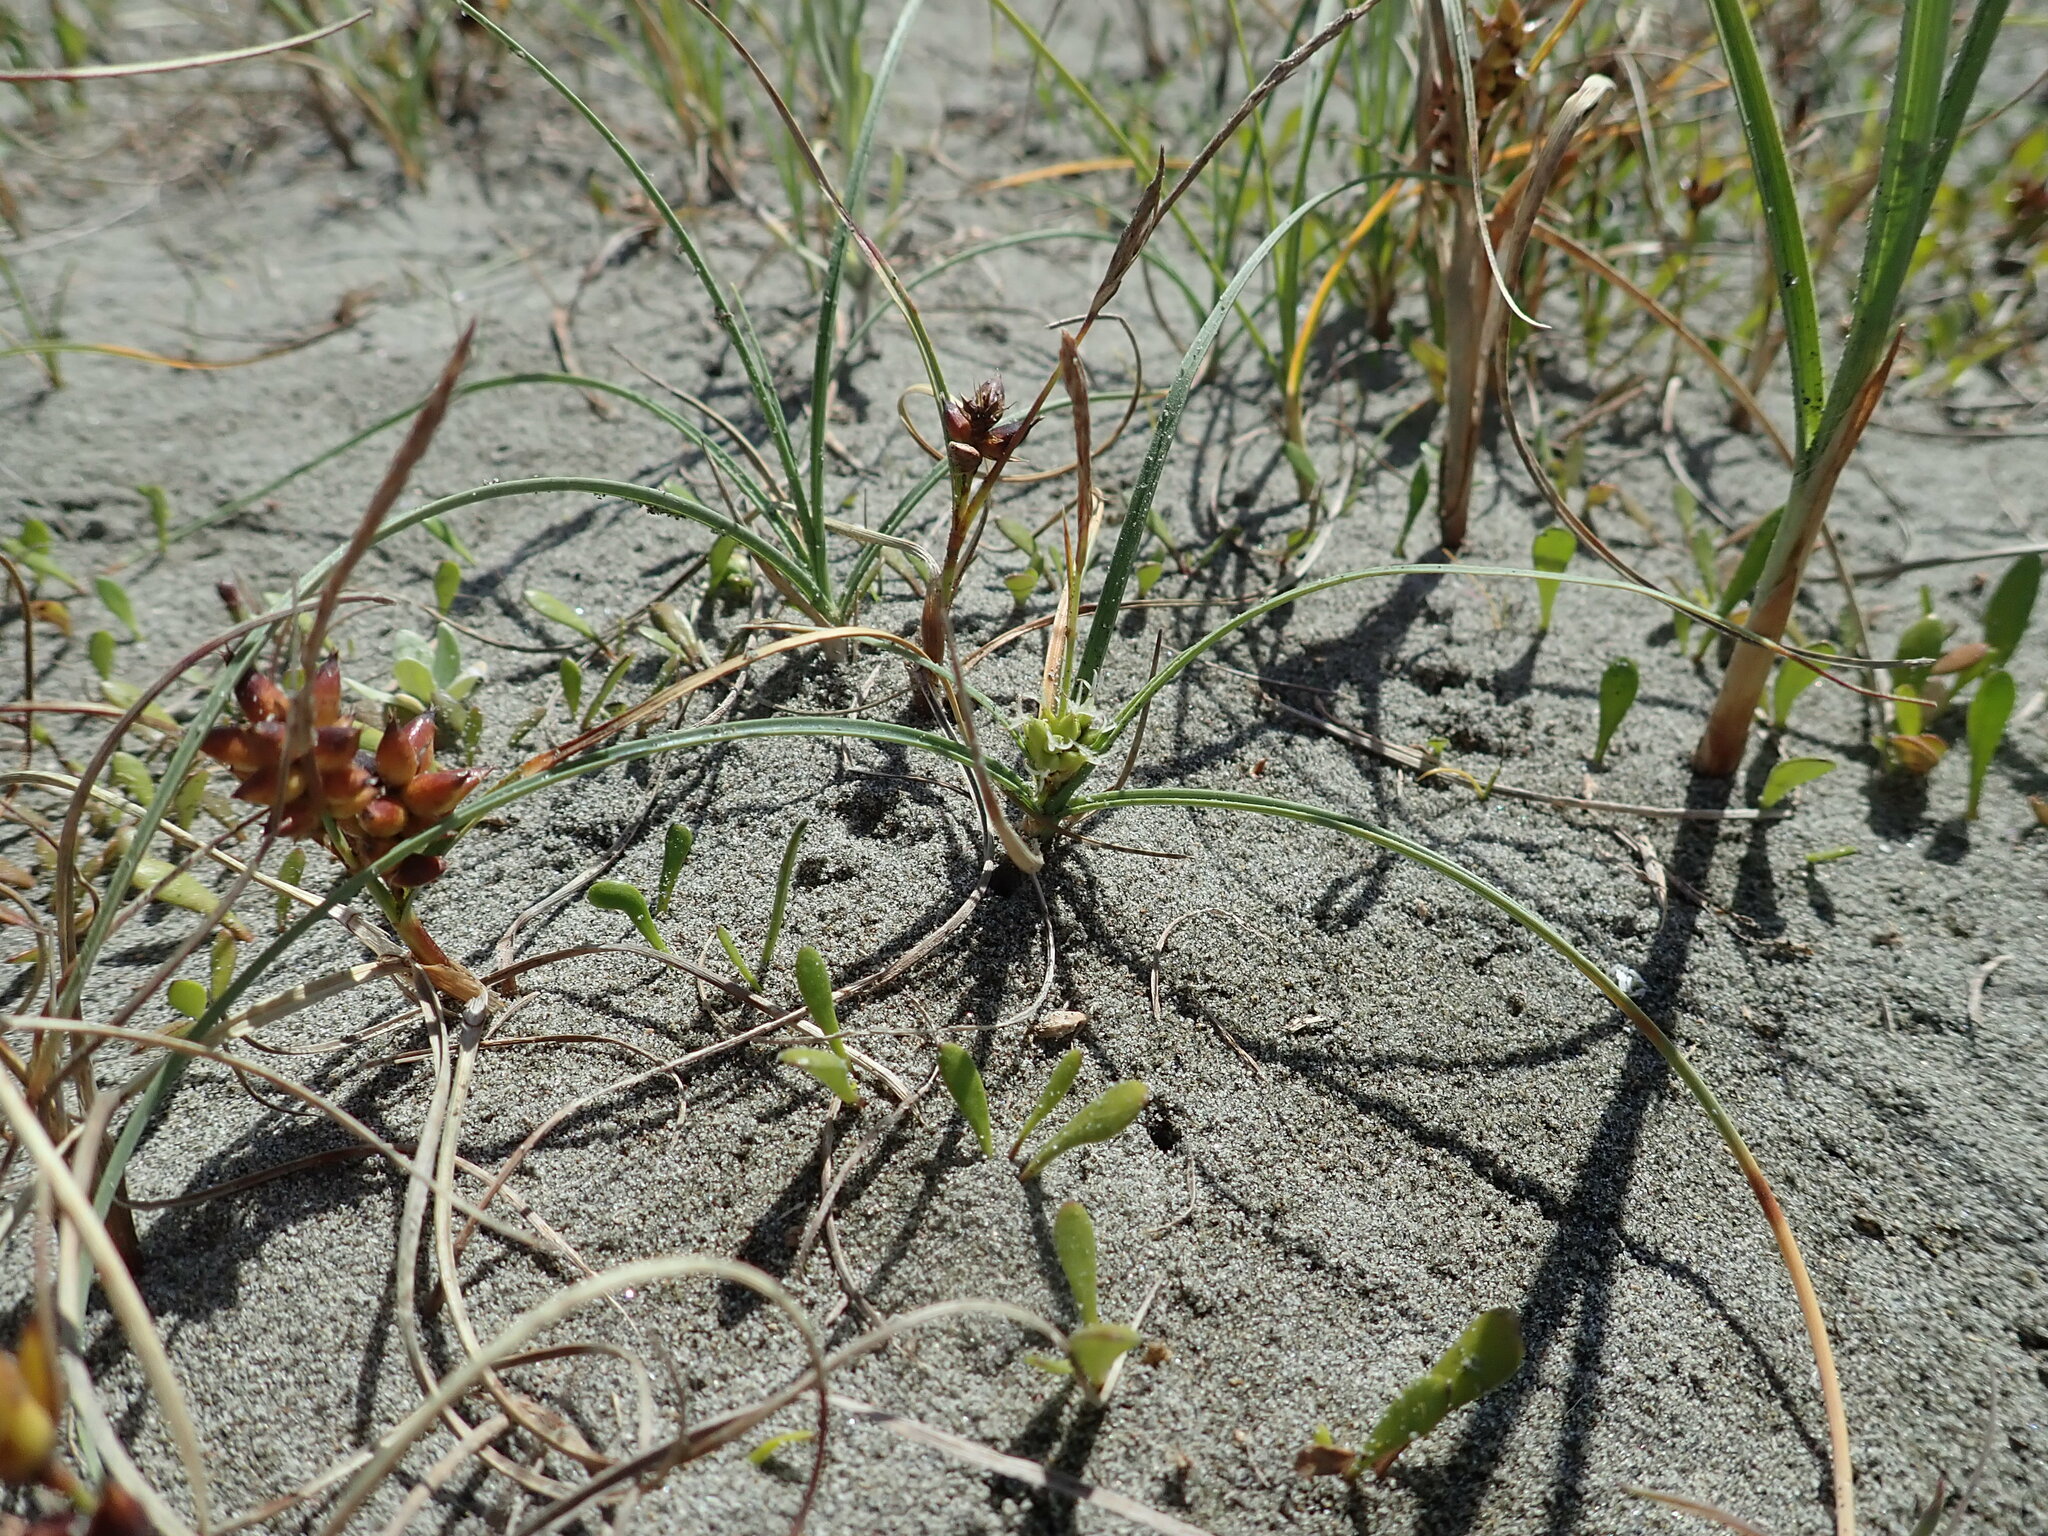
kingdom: Plantae
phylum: Tracheophyta
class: Liliopsida
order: Poales
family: Cyperaceae
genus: Carex
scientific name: Carex pumila
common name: Dwarf sedge
